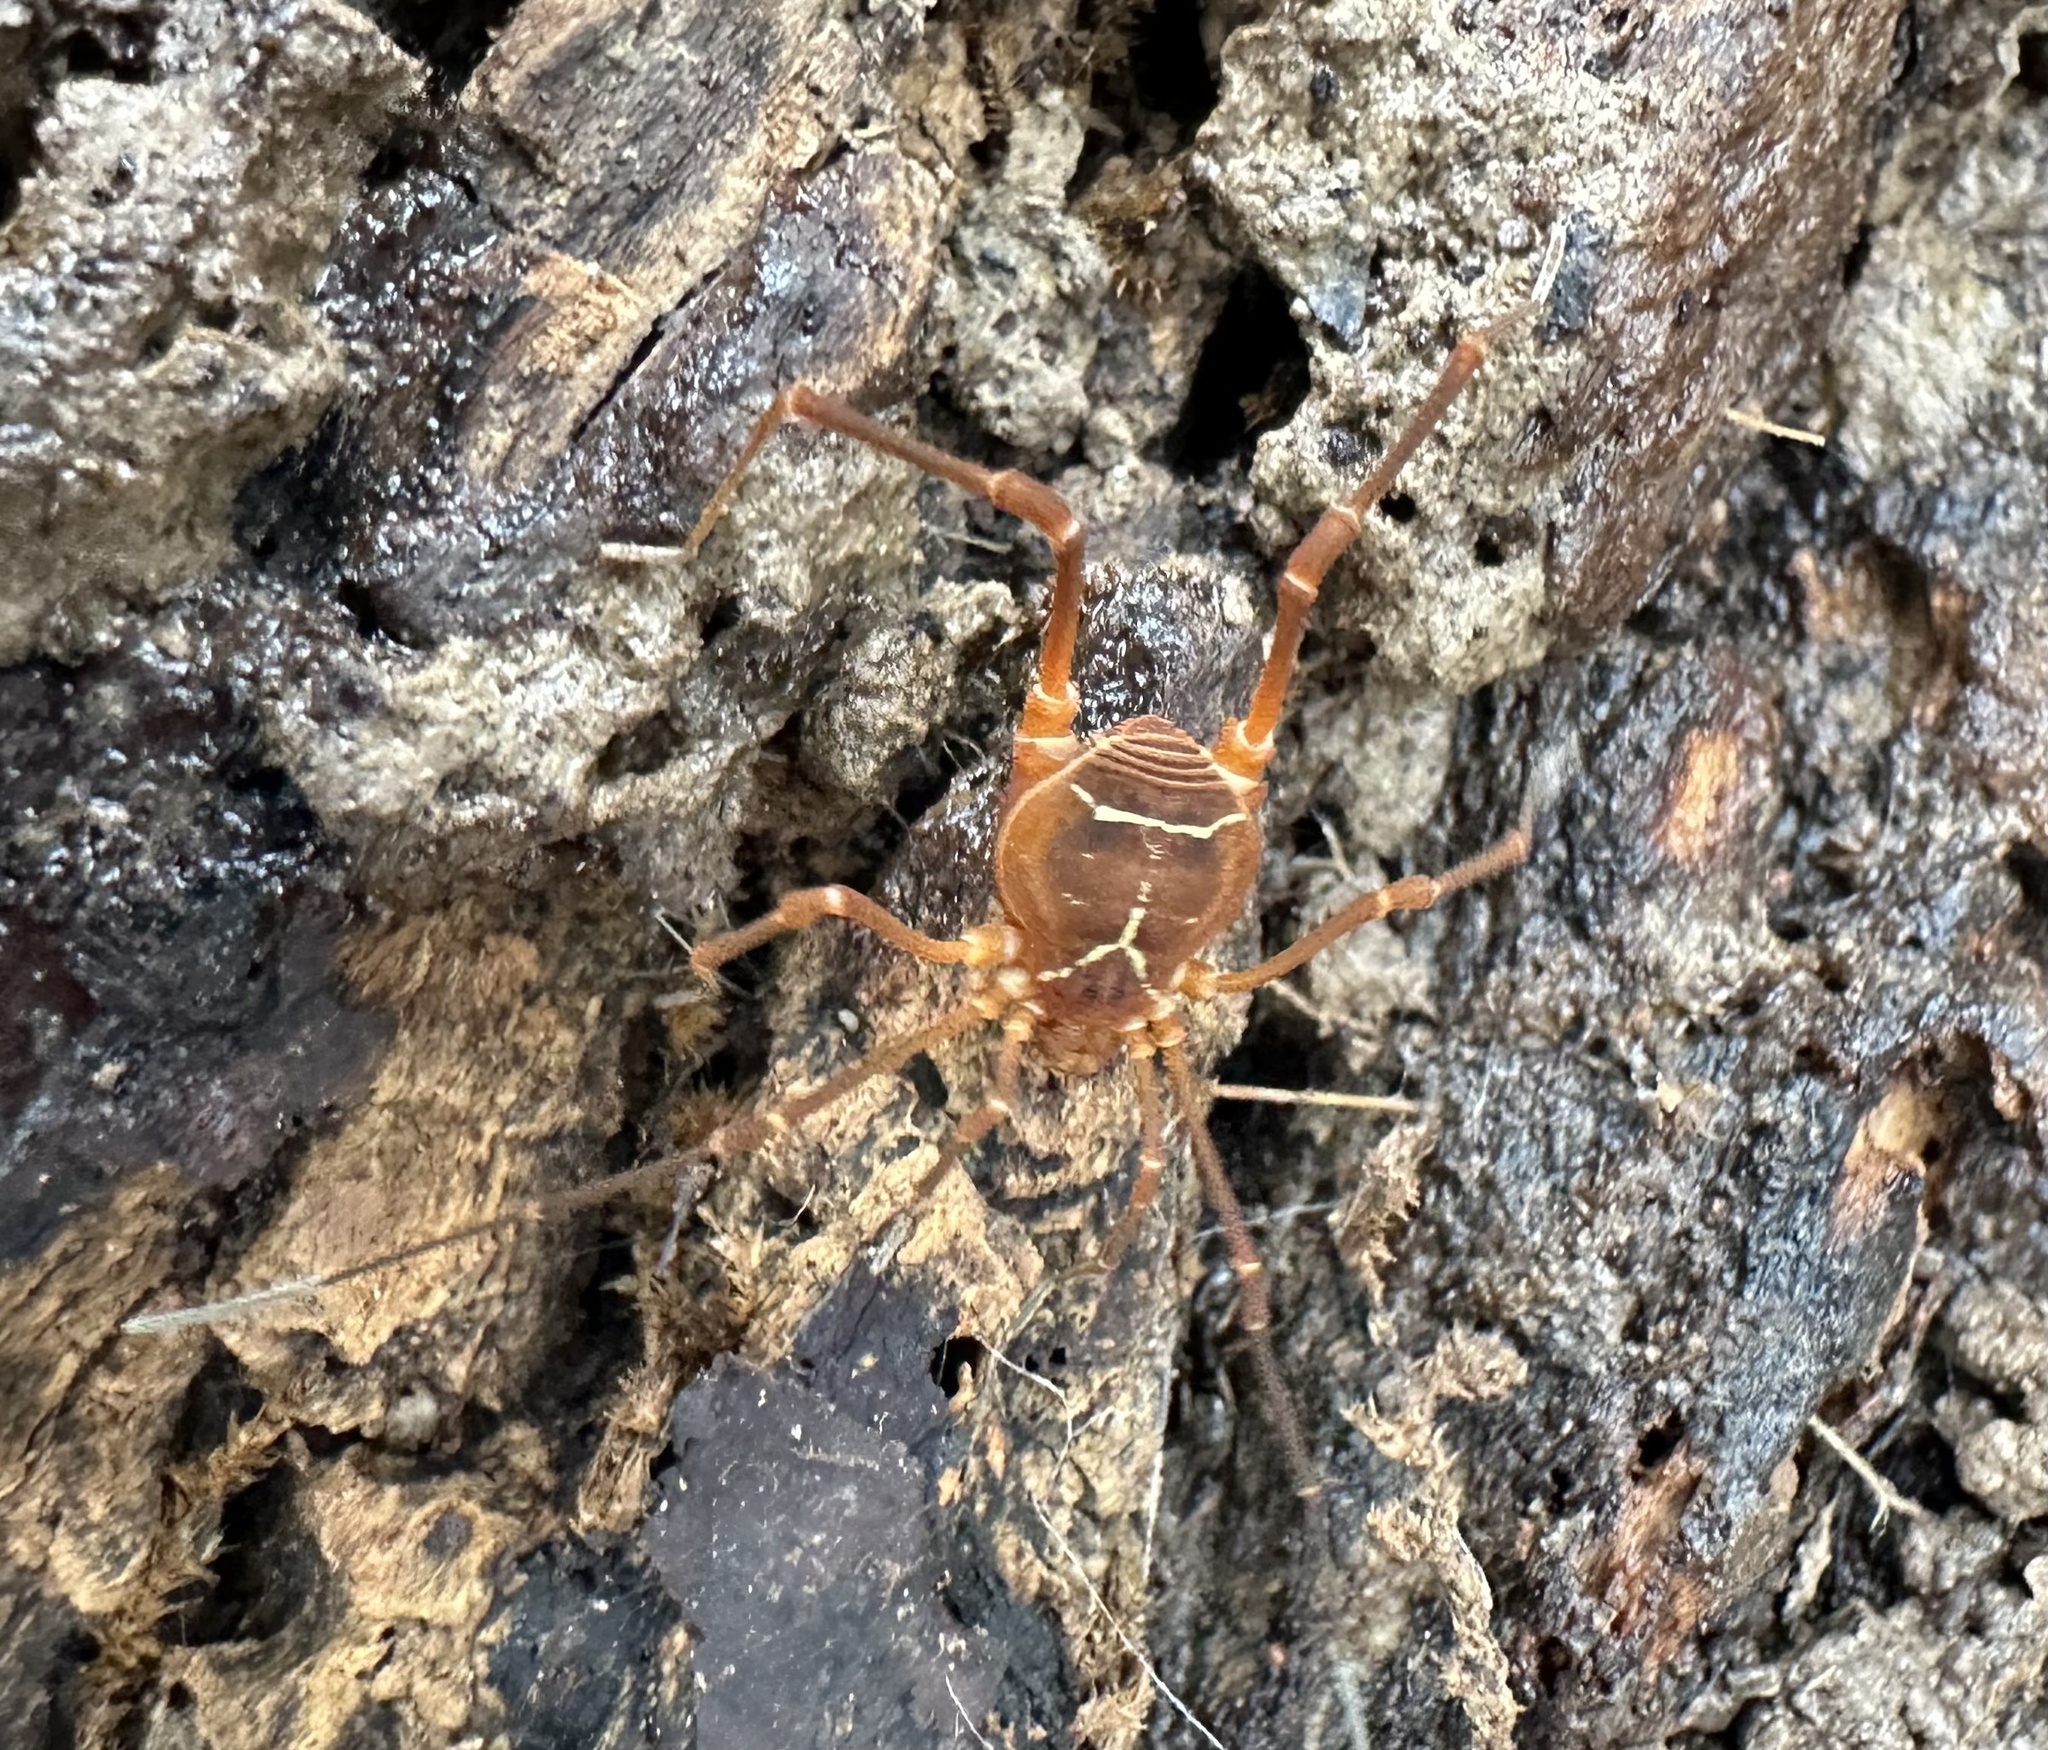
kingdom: Animalia
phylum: Arthropoda
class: Arachnida
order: Opiliones
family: Cosmetidae
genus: Libitioides
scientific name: Libitioides sayi
